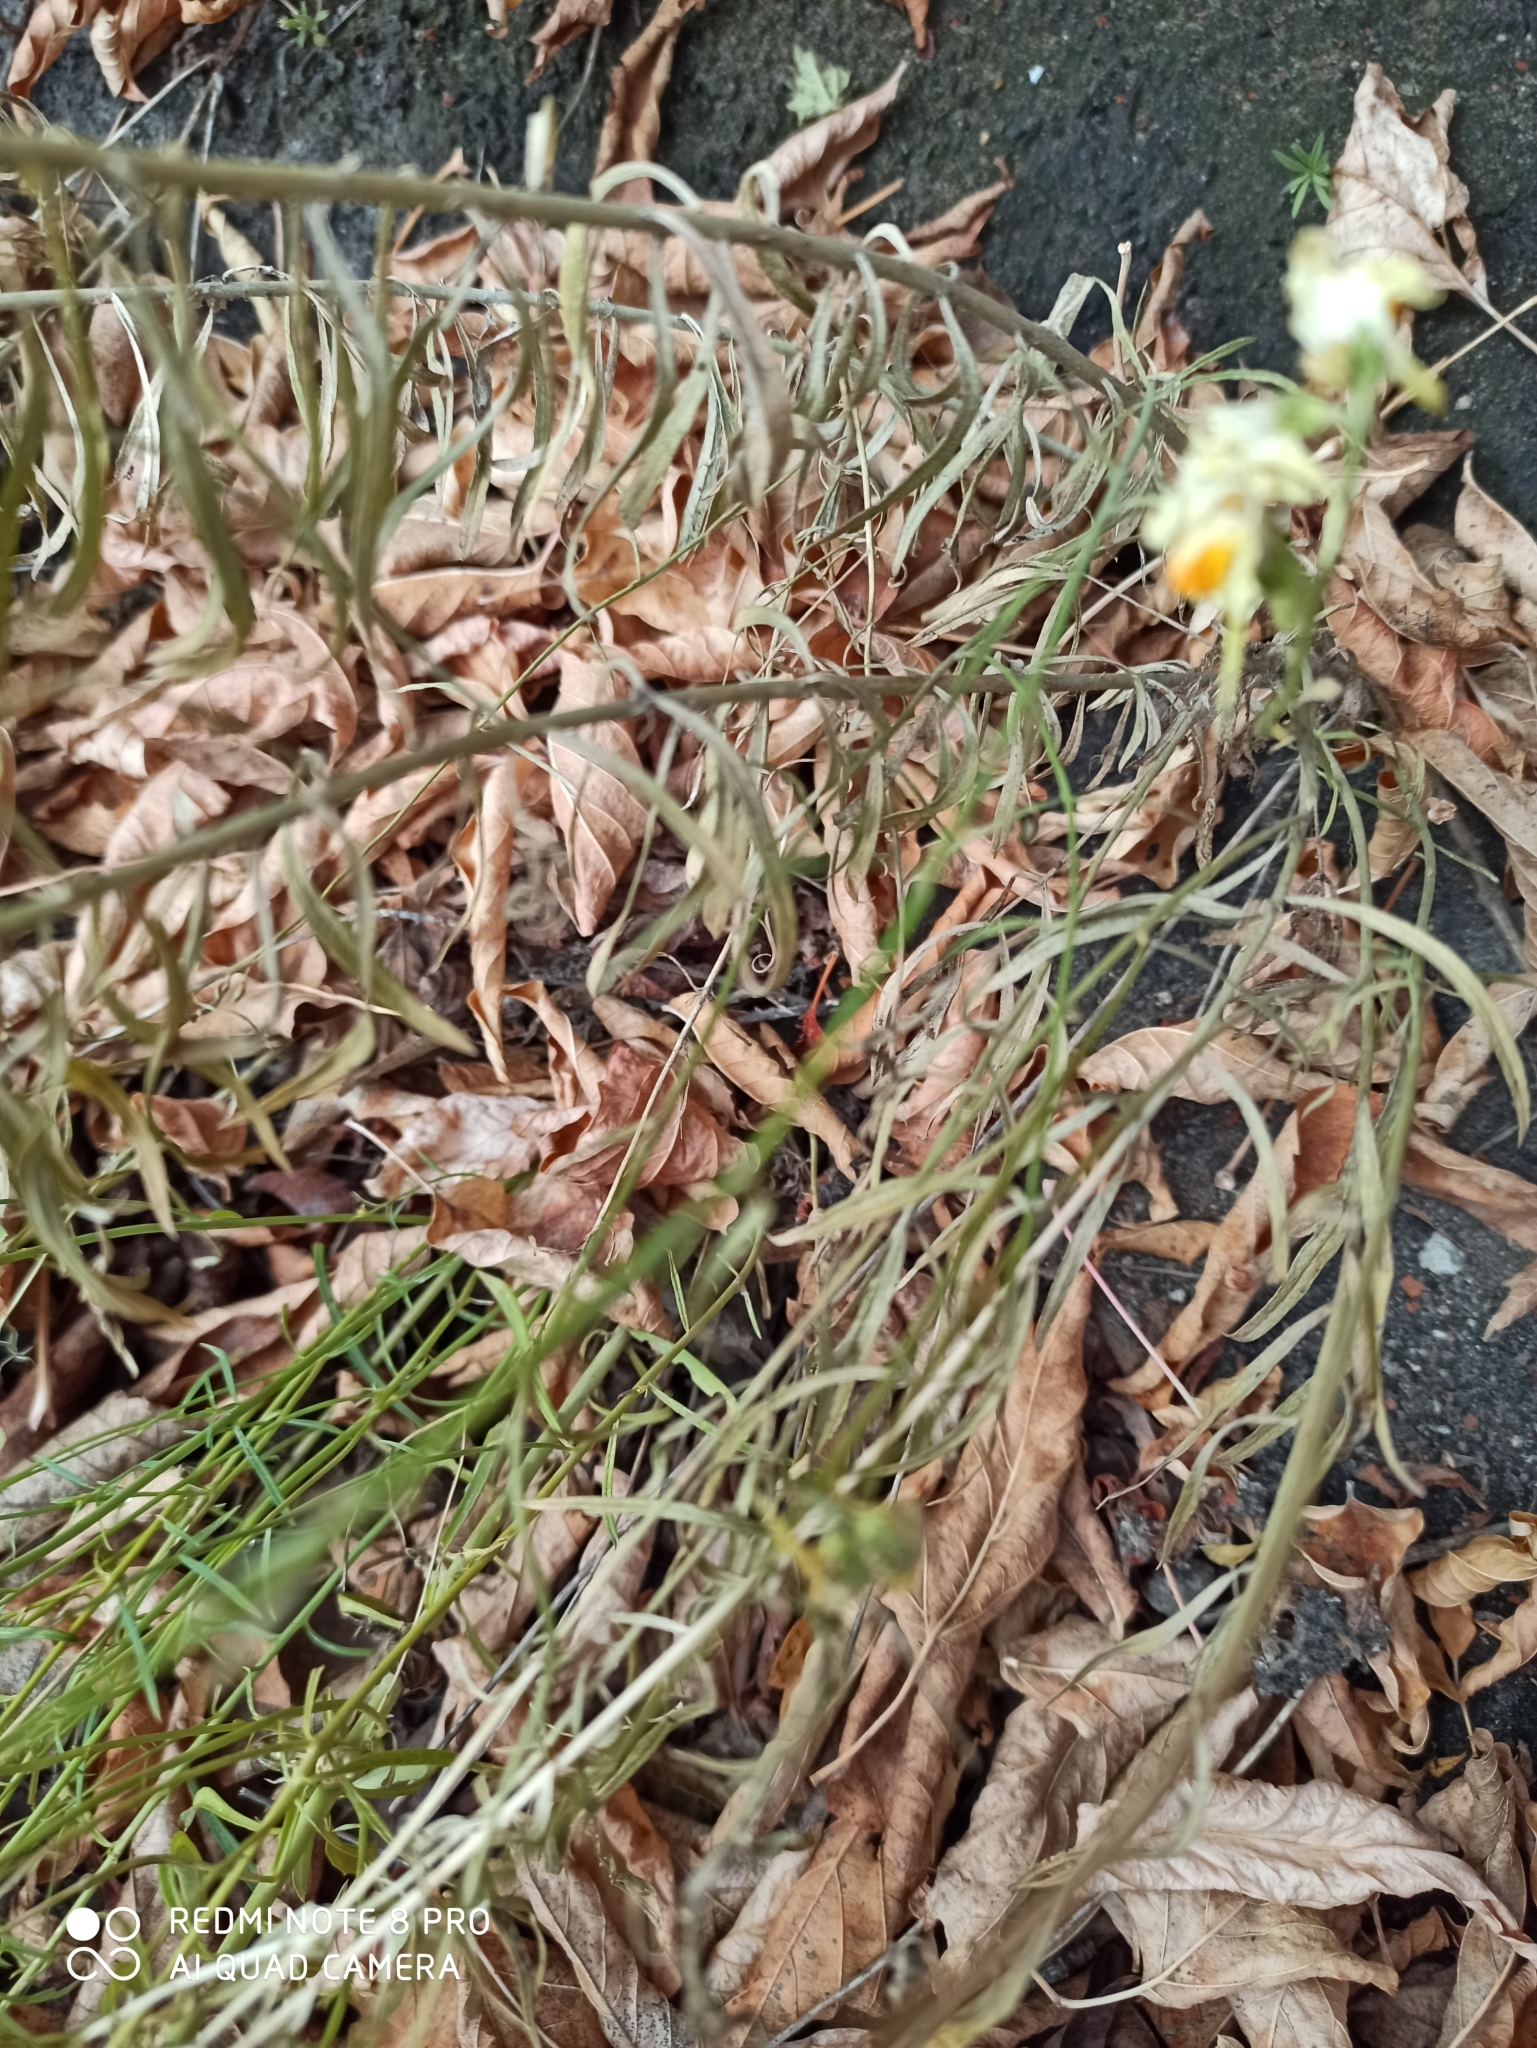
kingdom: Plantae
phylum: Tracheophyta
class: Magnoliopsida
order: Lamiales
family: Plantaginaceae
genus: Linaria
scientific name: Linaria vulgaris
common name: Butter and eggs
